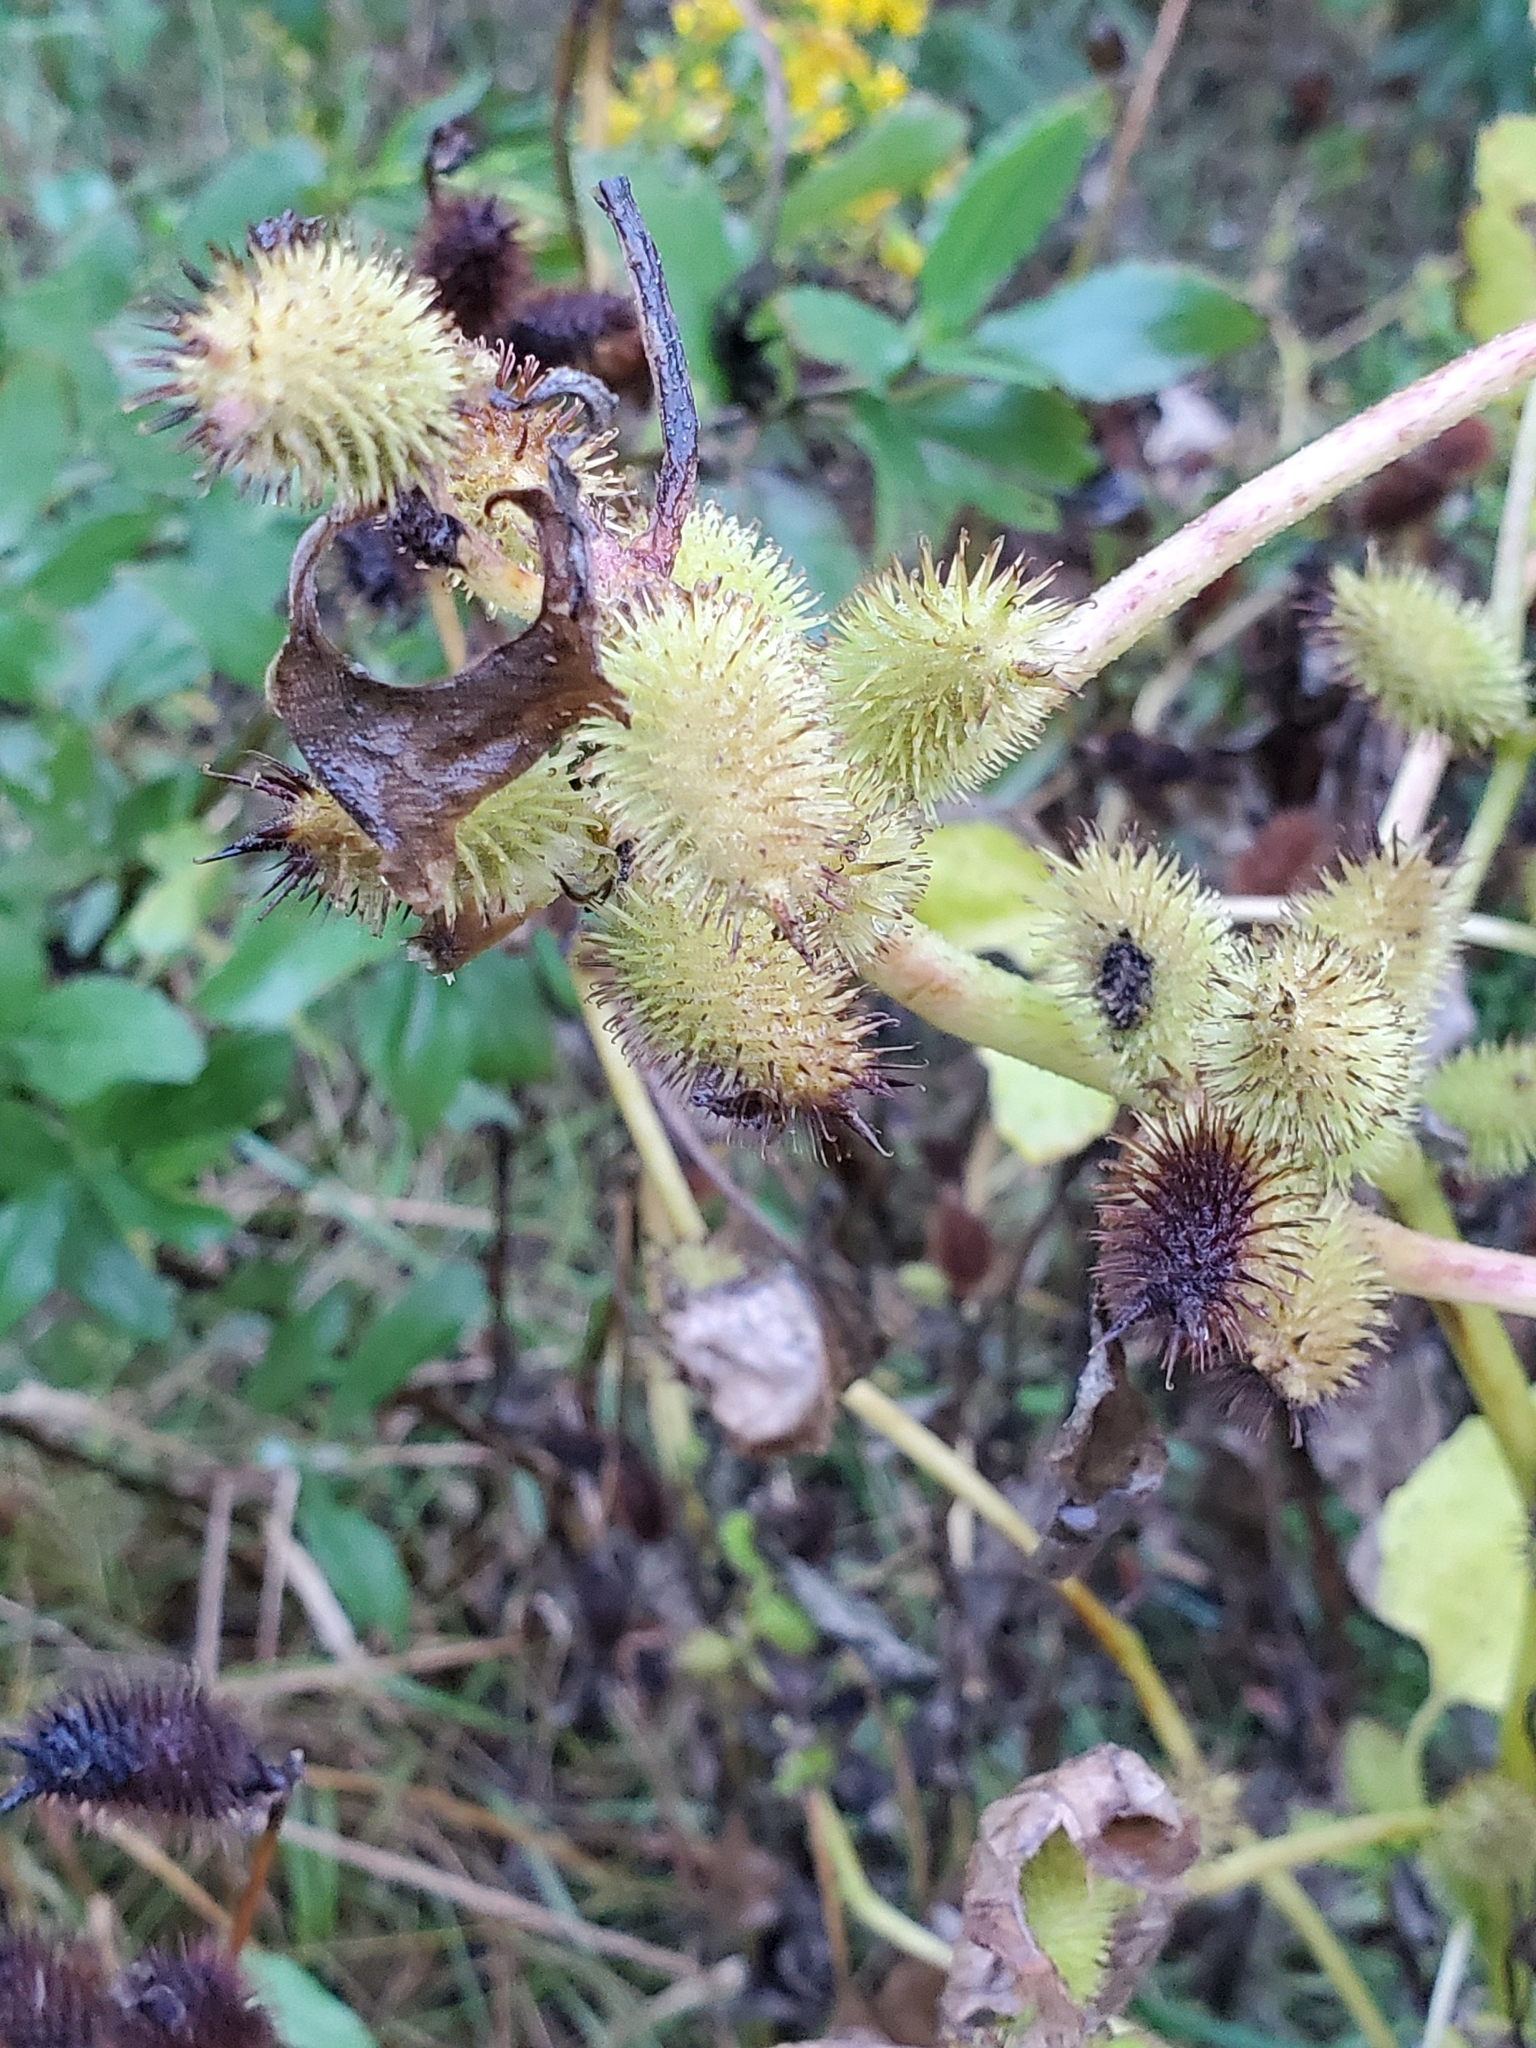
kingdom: Plantae
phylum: Tracheophyta
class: Magnoliopsida
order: Asterales
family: Asteraceae
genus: Xanthium
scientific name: Xanthium strumarium
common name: Rough cocklebur
